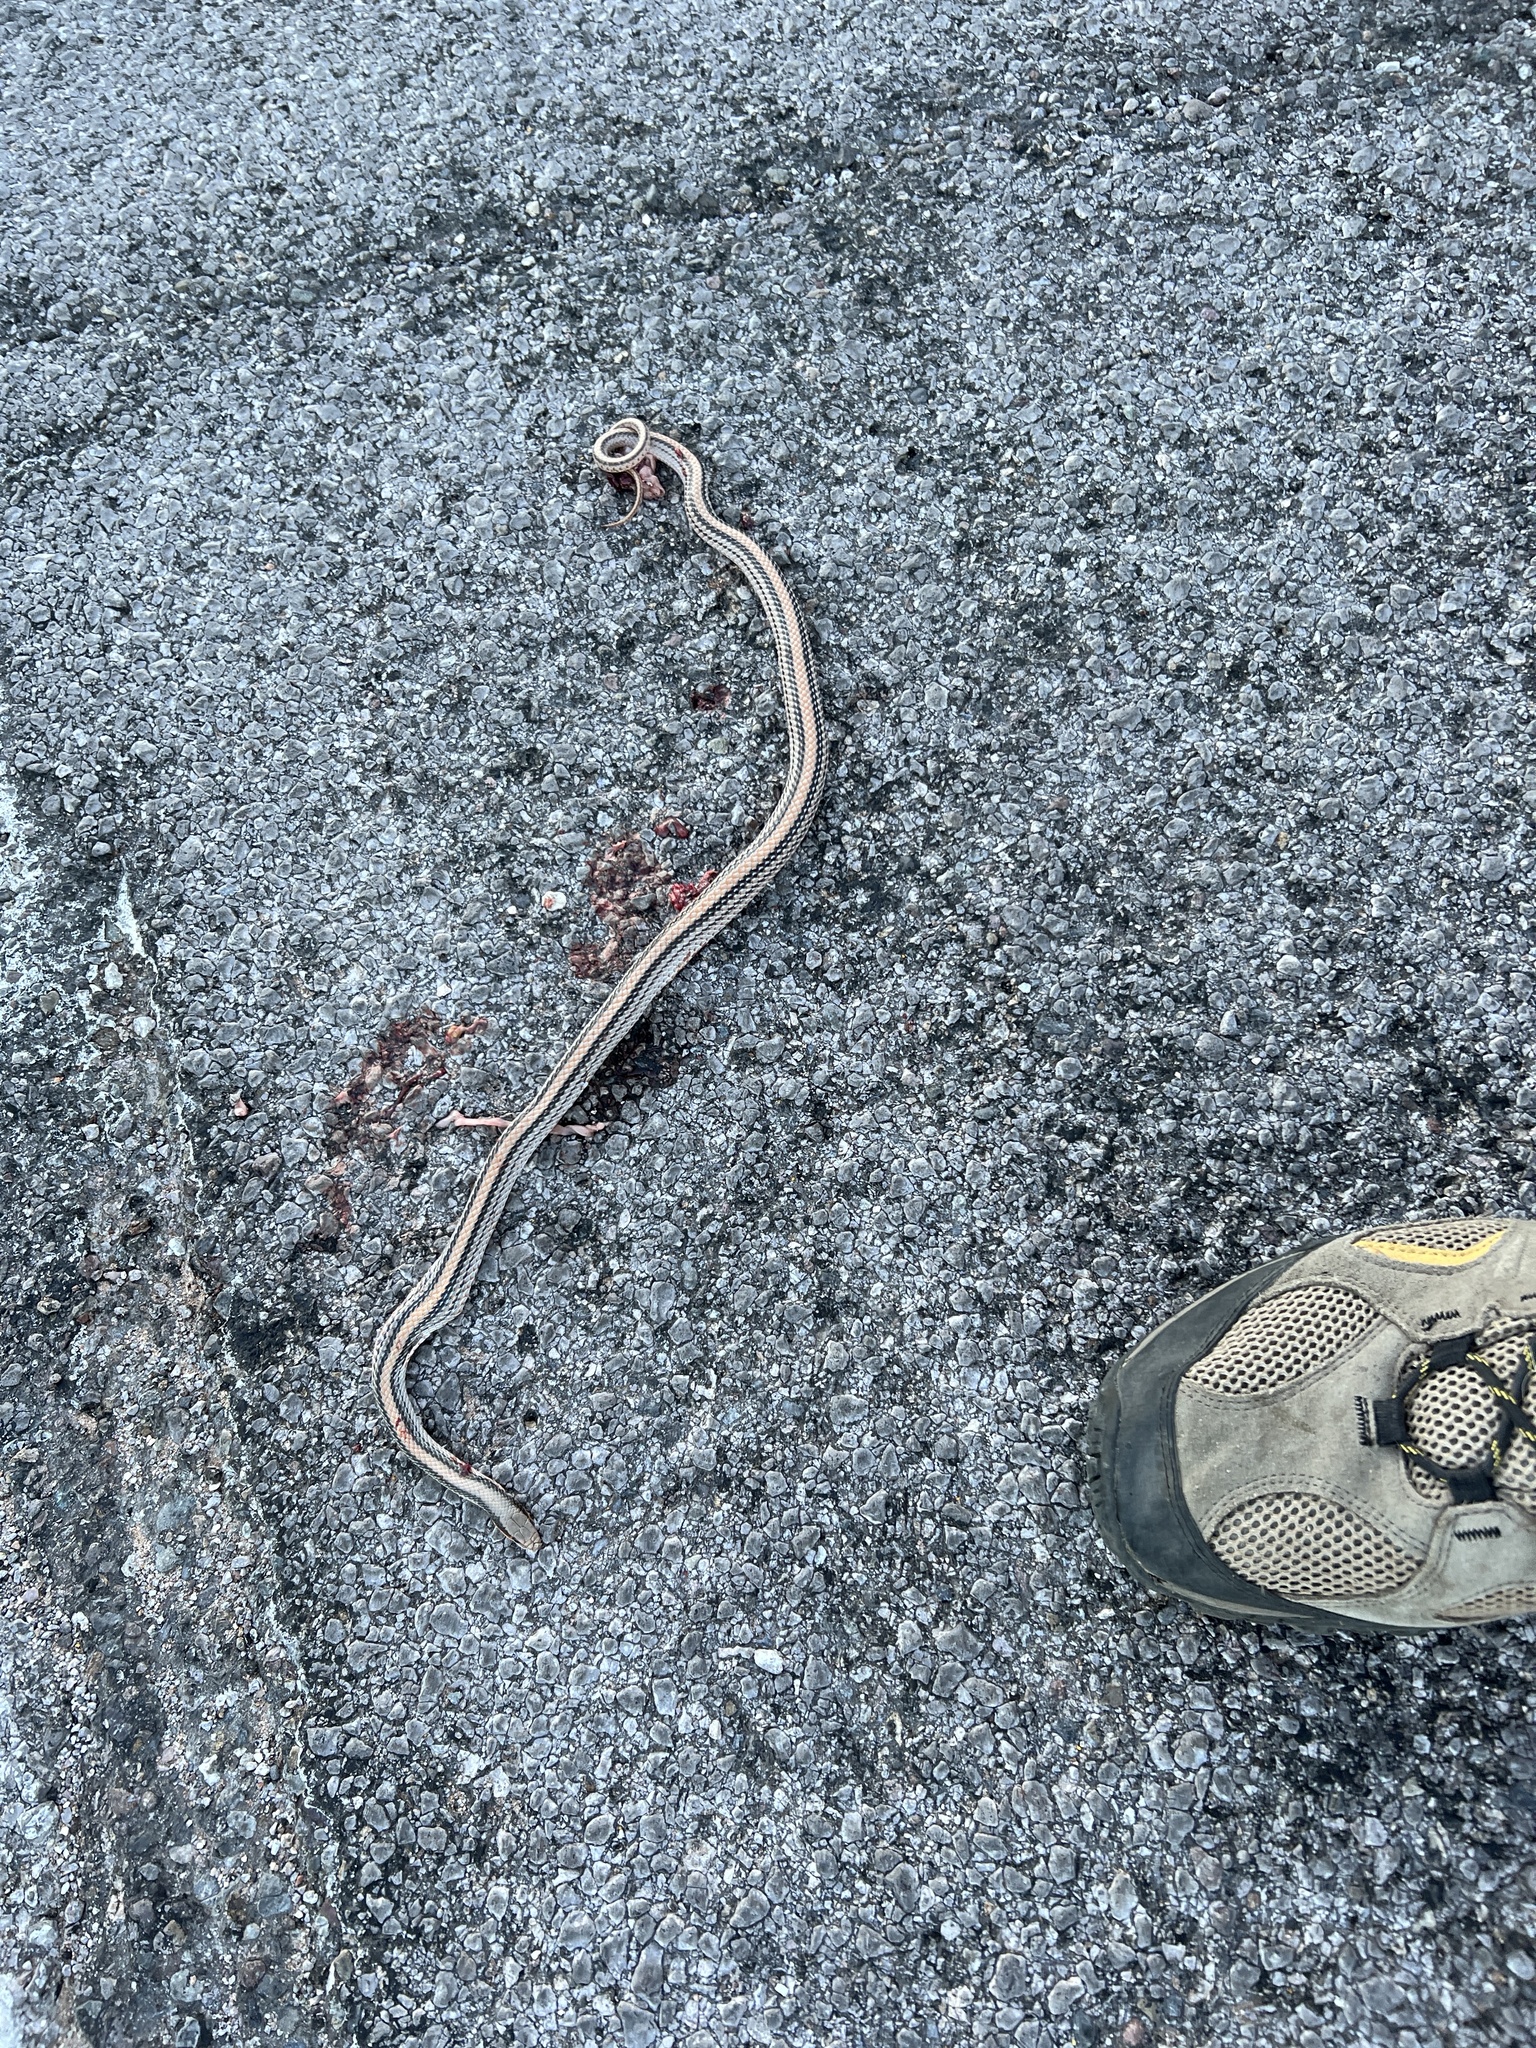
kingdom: Animalia
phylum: Chordata
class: Squamata
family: Colubridae
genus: Salvadora
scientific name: Salvadora deserticola
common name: Big bend patchnose snake
